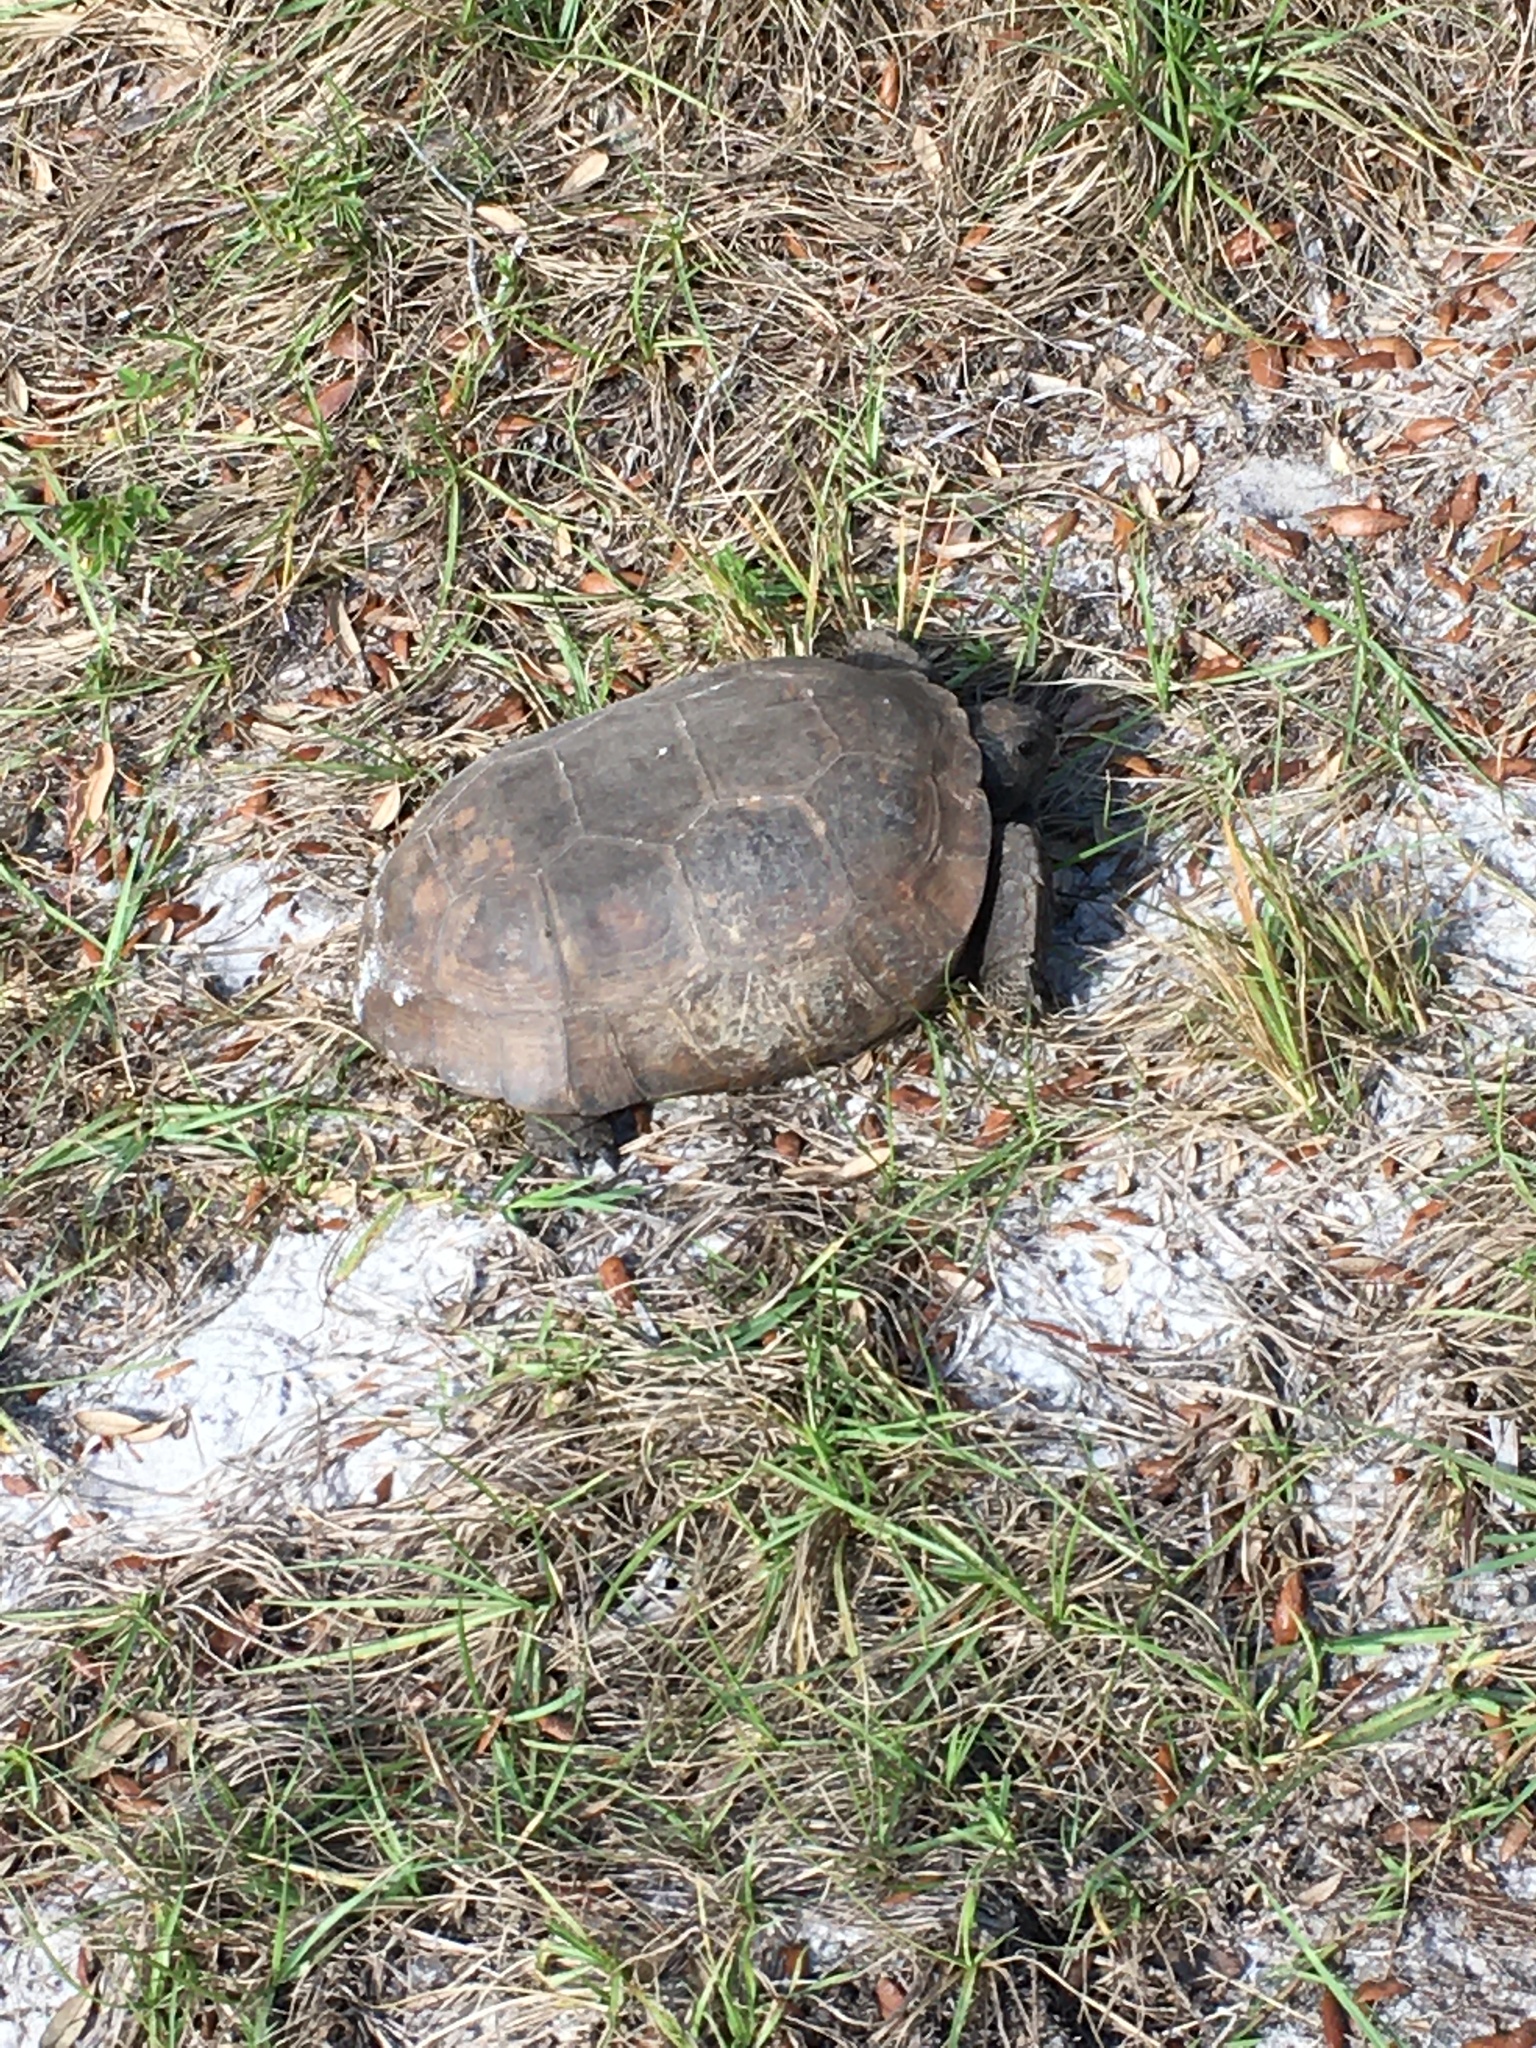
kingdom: Animalia
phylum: Chordata
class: Testudines
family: Testudinidae
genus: Gopherus
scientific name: Gopherus polyphemus
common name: Florida gopher tortoise
